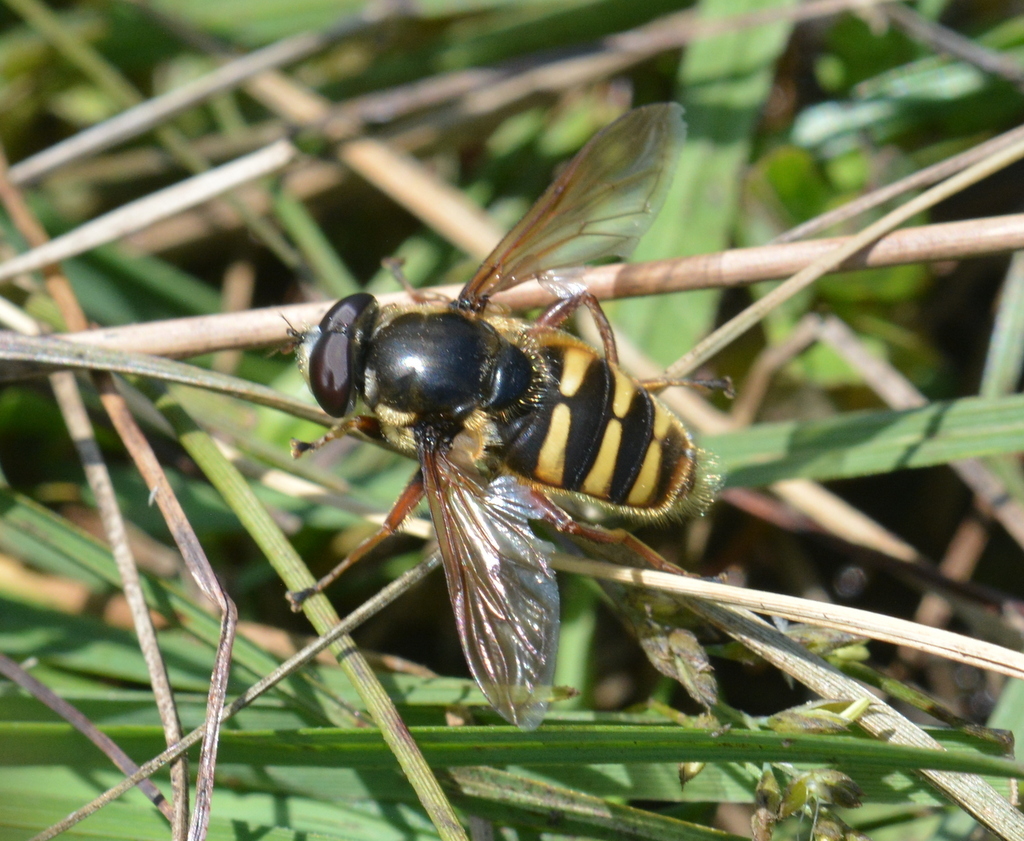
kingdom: Animalia
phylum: Arthropoda
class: Insecta
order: Diptera
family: Syrphidae
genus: Sericomyia
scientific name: Sericomyia silentis
